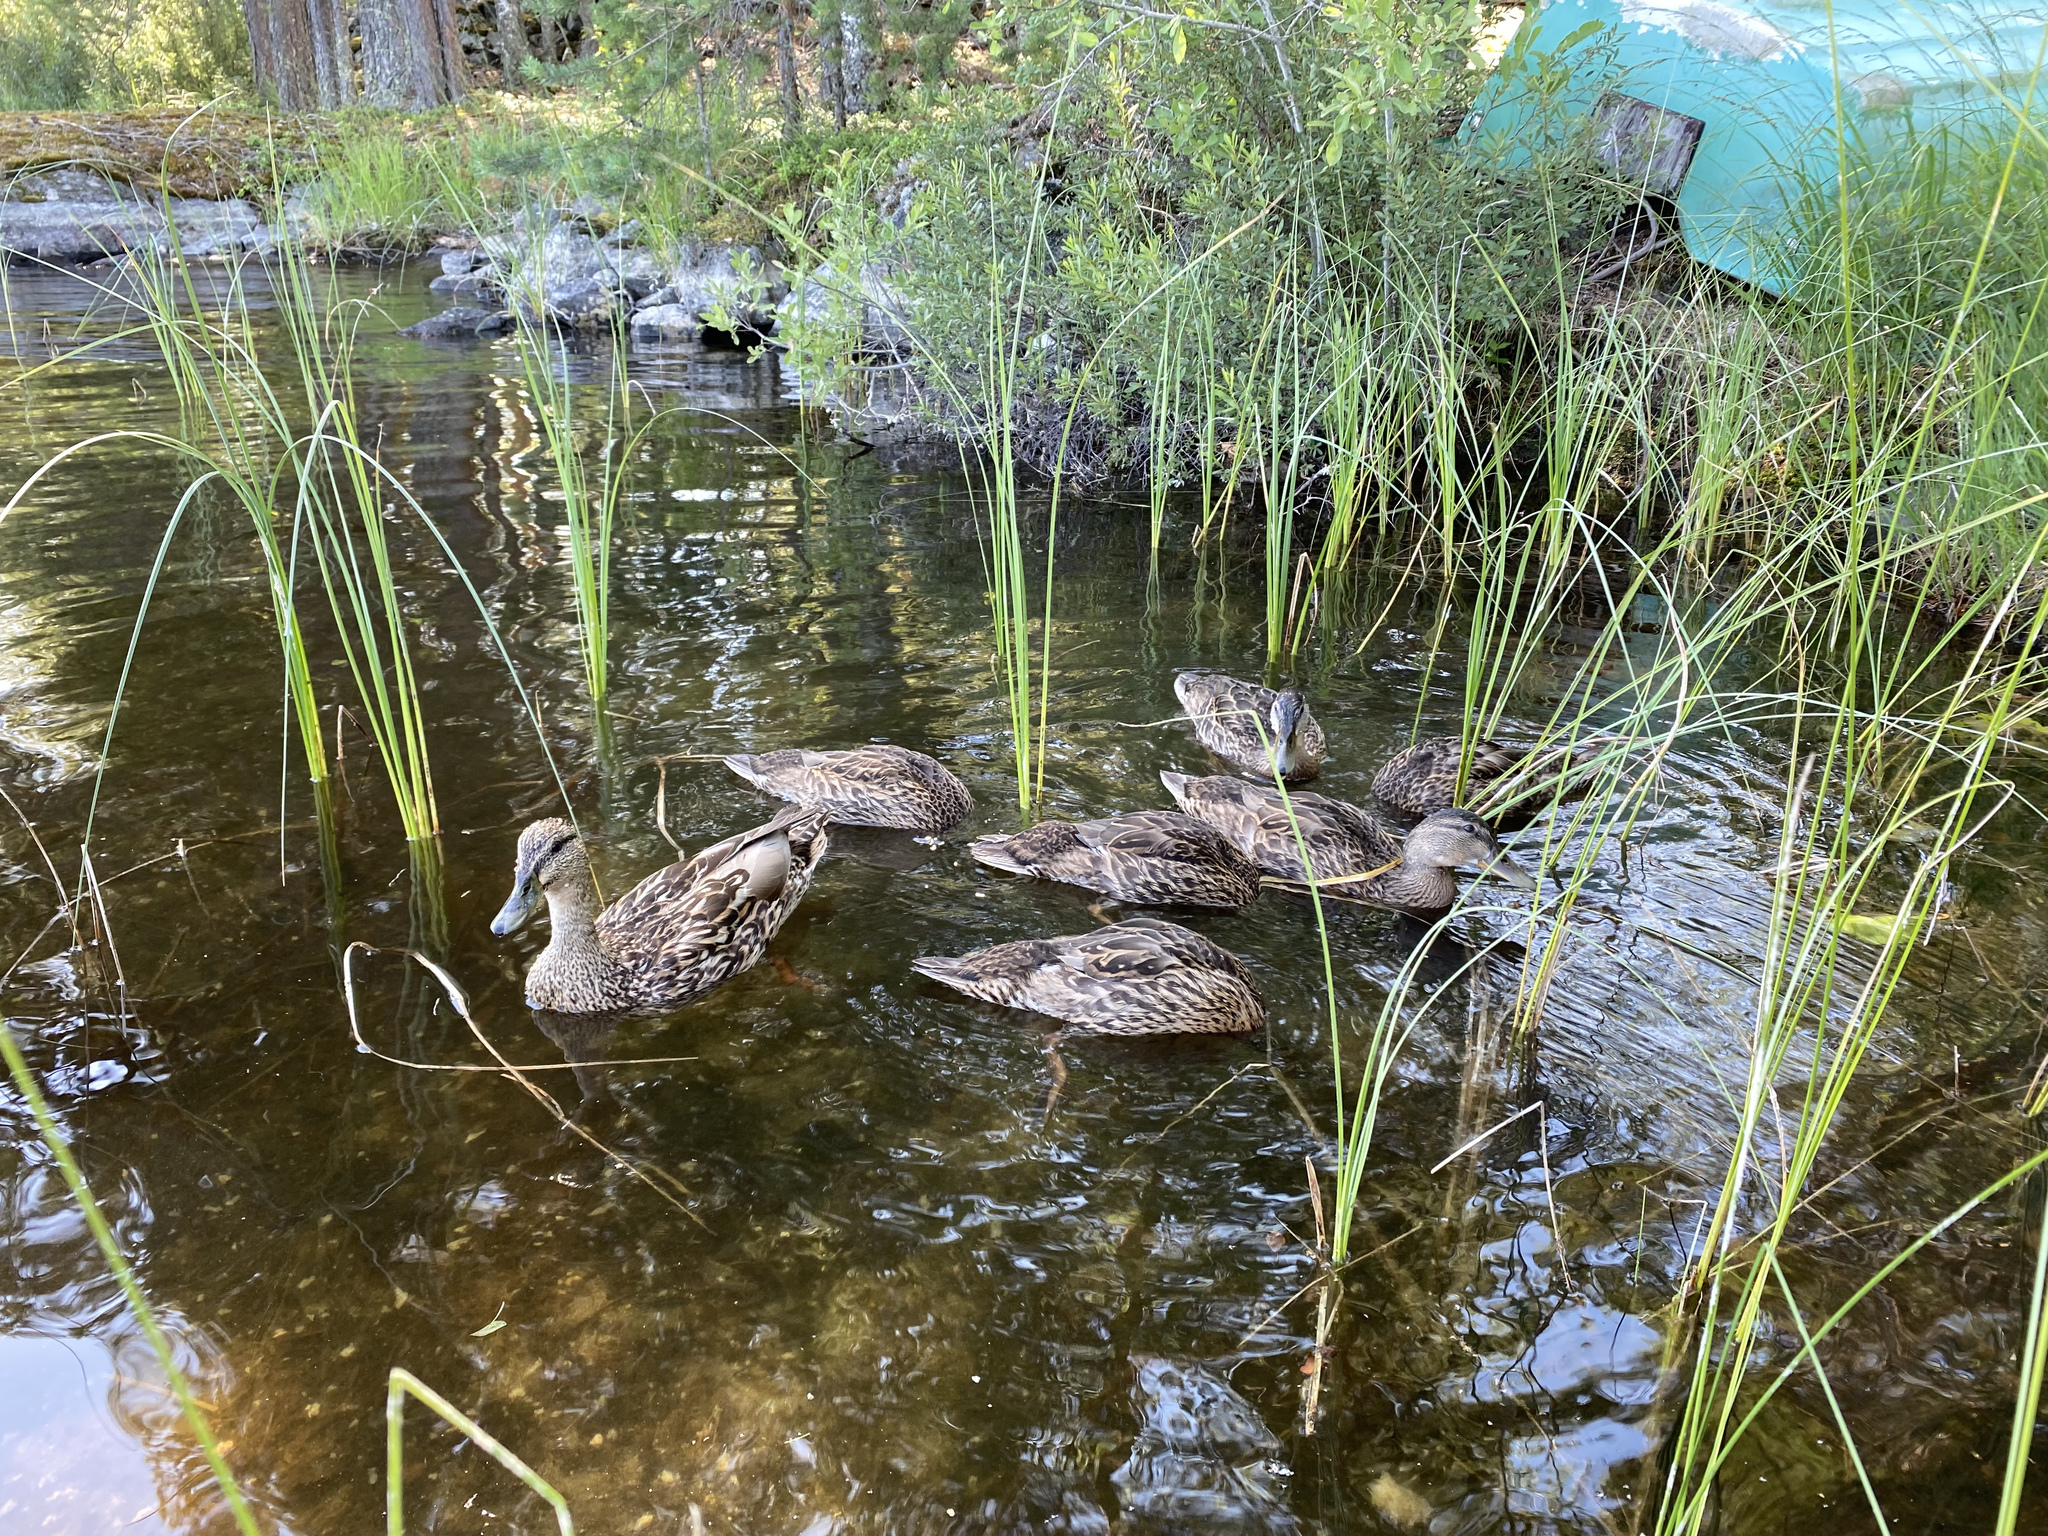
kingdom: Animalia
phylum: Chordata
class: Aves
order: Anseriformes
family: Anatidae
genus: Anas
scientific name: Anas platyrhynchos
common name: Mallard
